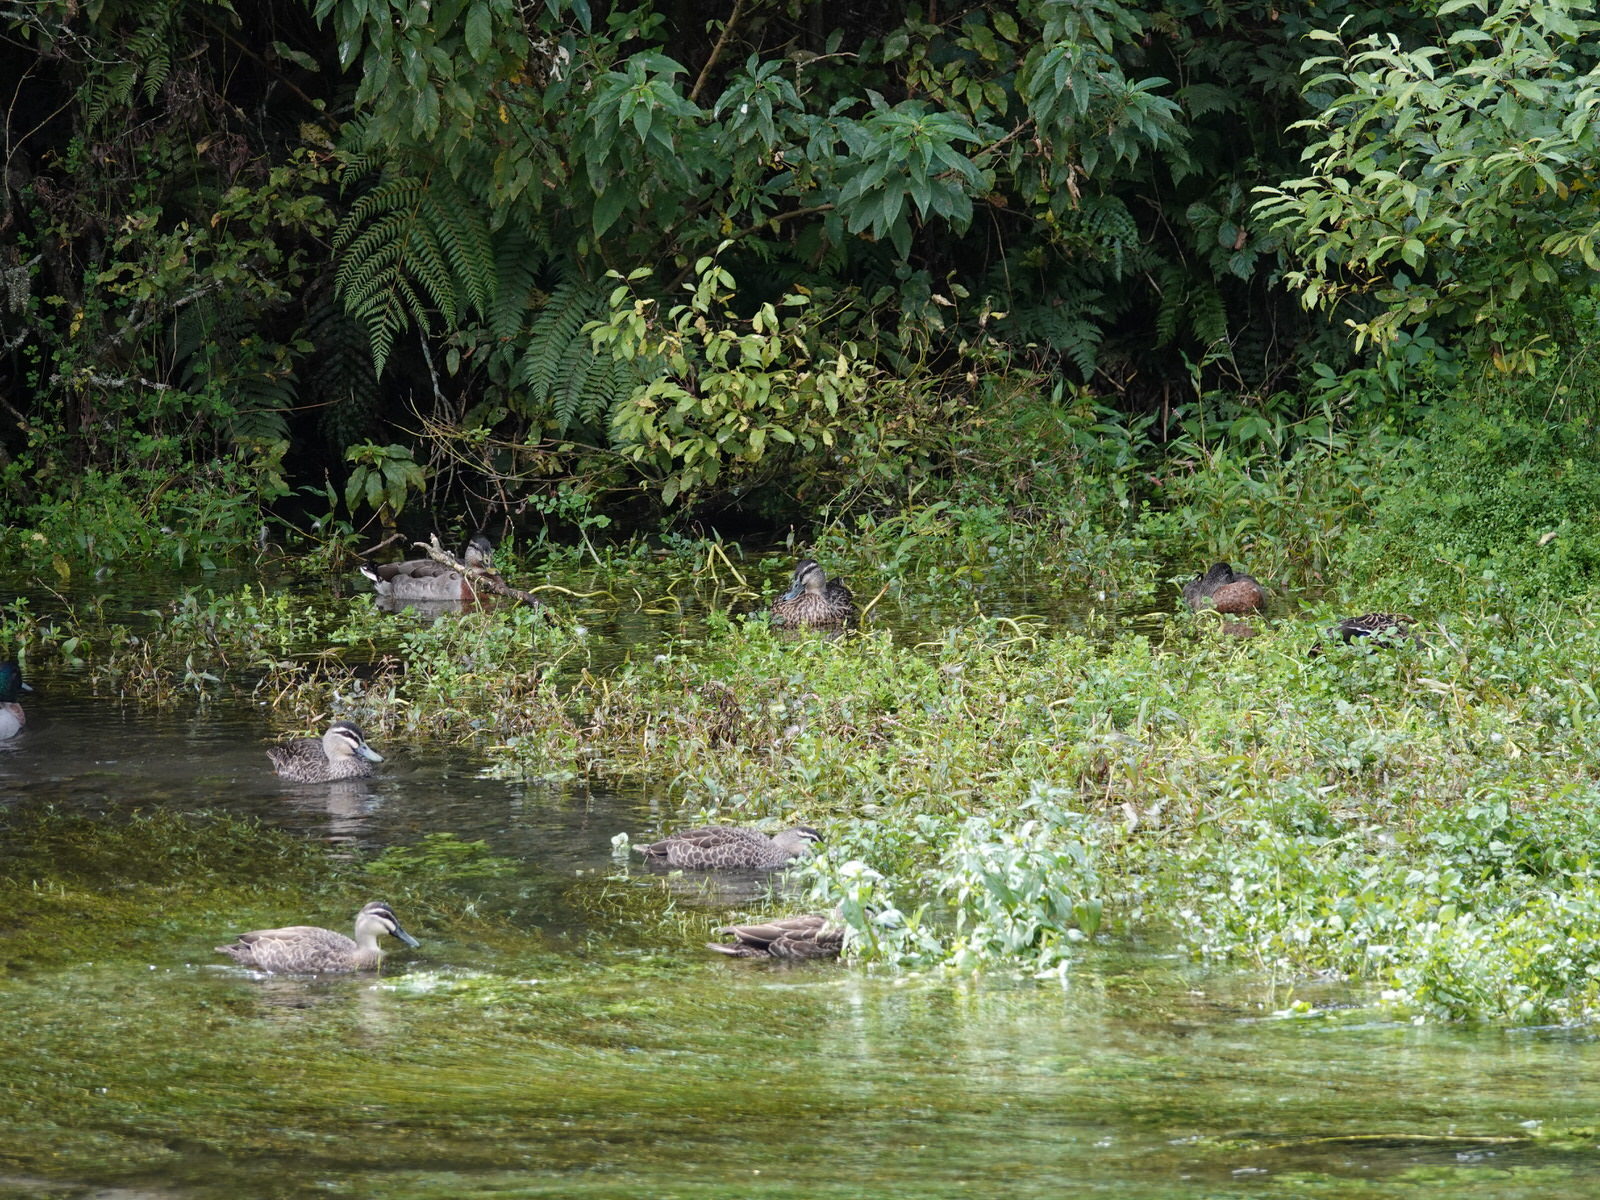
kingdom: Animalia
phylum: Chordata
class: Aves
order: Anseriformes
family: Anatidae
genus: Anas
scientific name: Anas platyrhynchos
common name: Mallard
